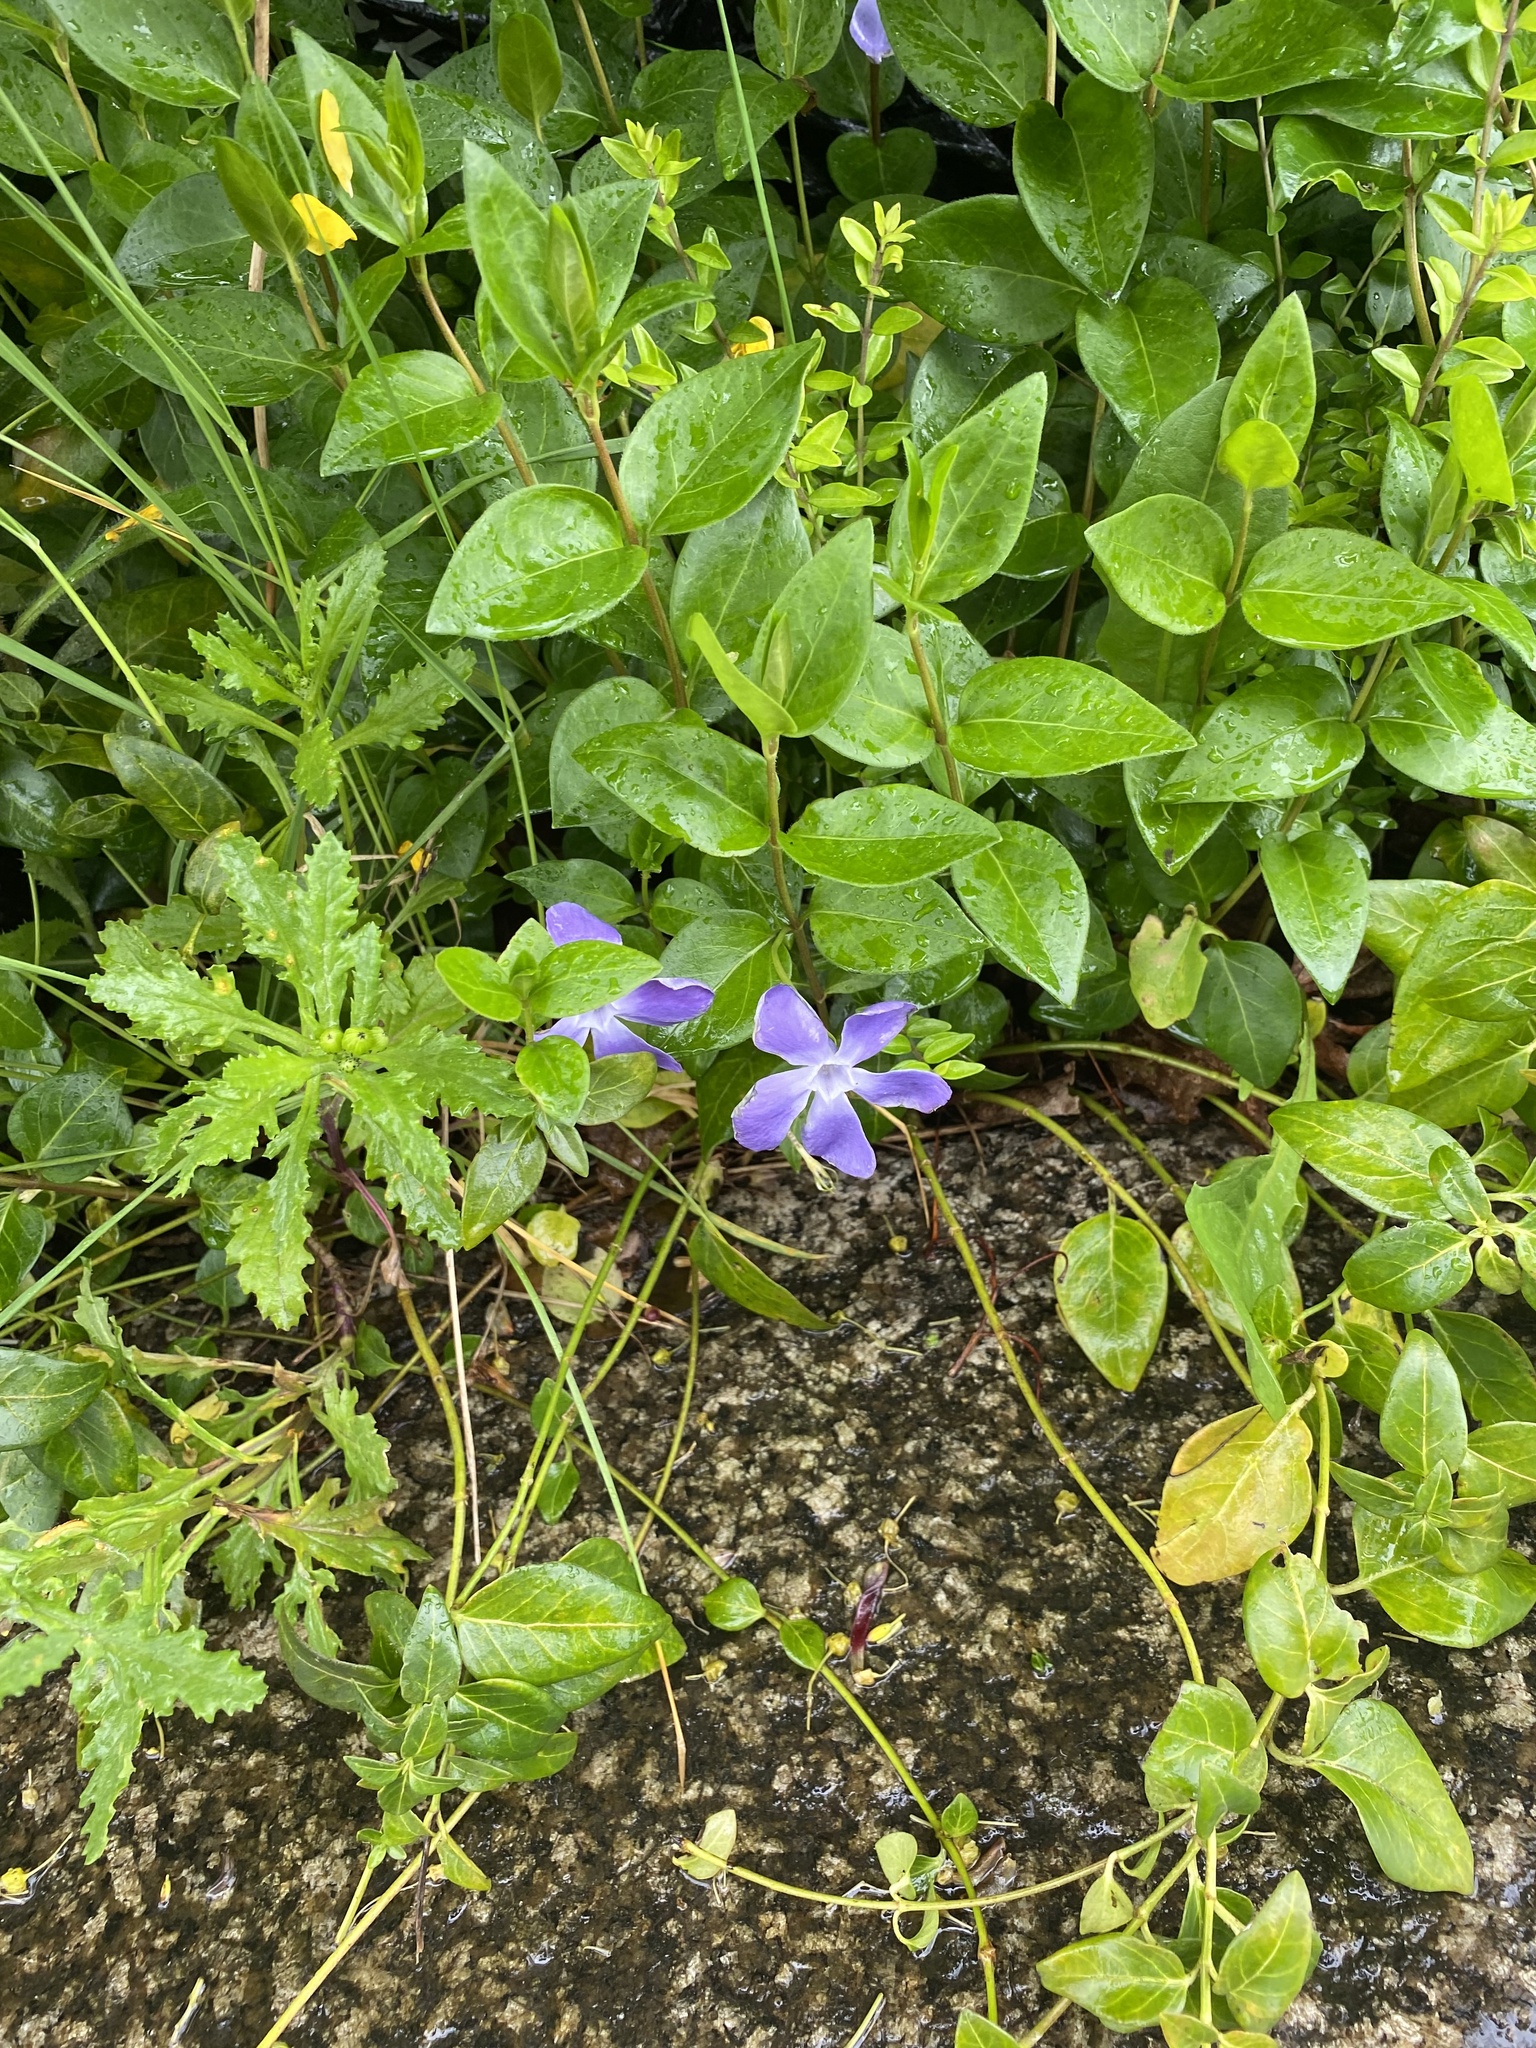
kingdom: Plantae
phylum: Tracheophyta
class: Magnoliopsida
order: Gentianales
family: Apocynaceae
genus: Vinca
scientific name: Vinca major
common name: Greater periwinkle
